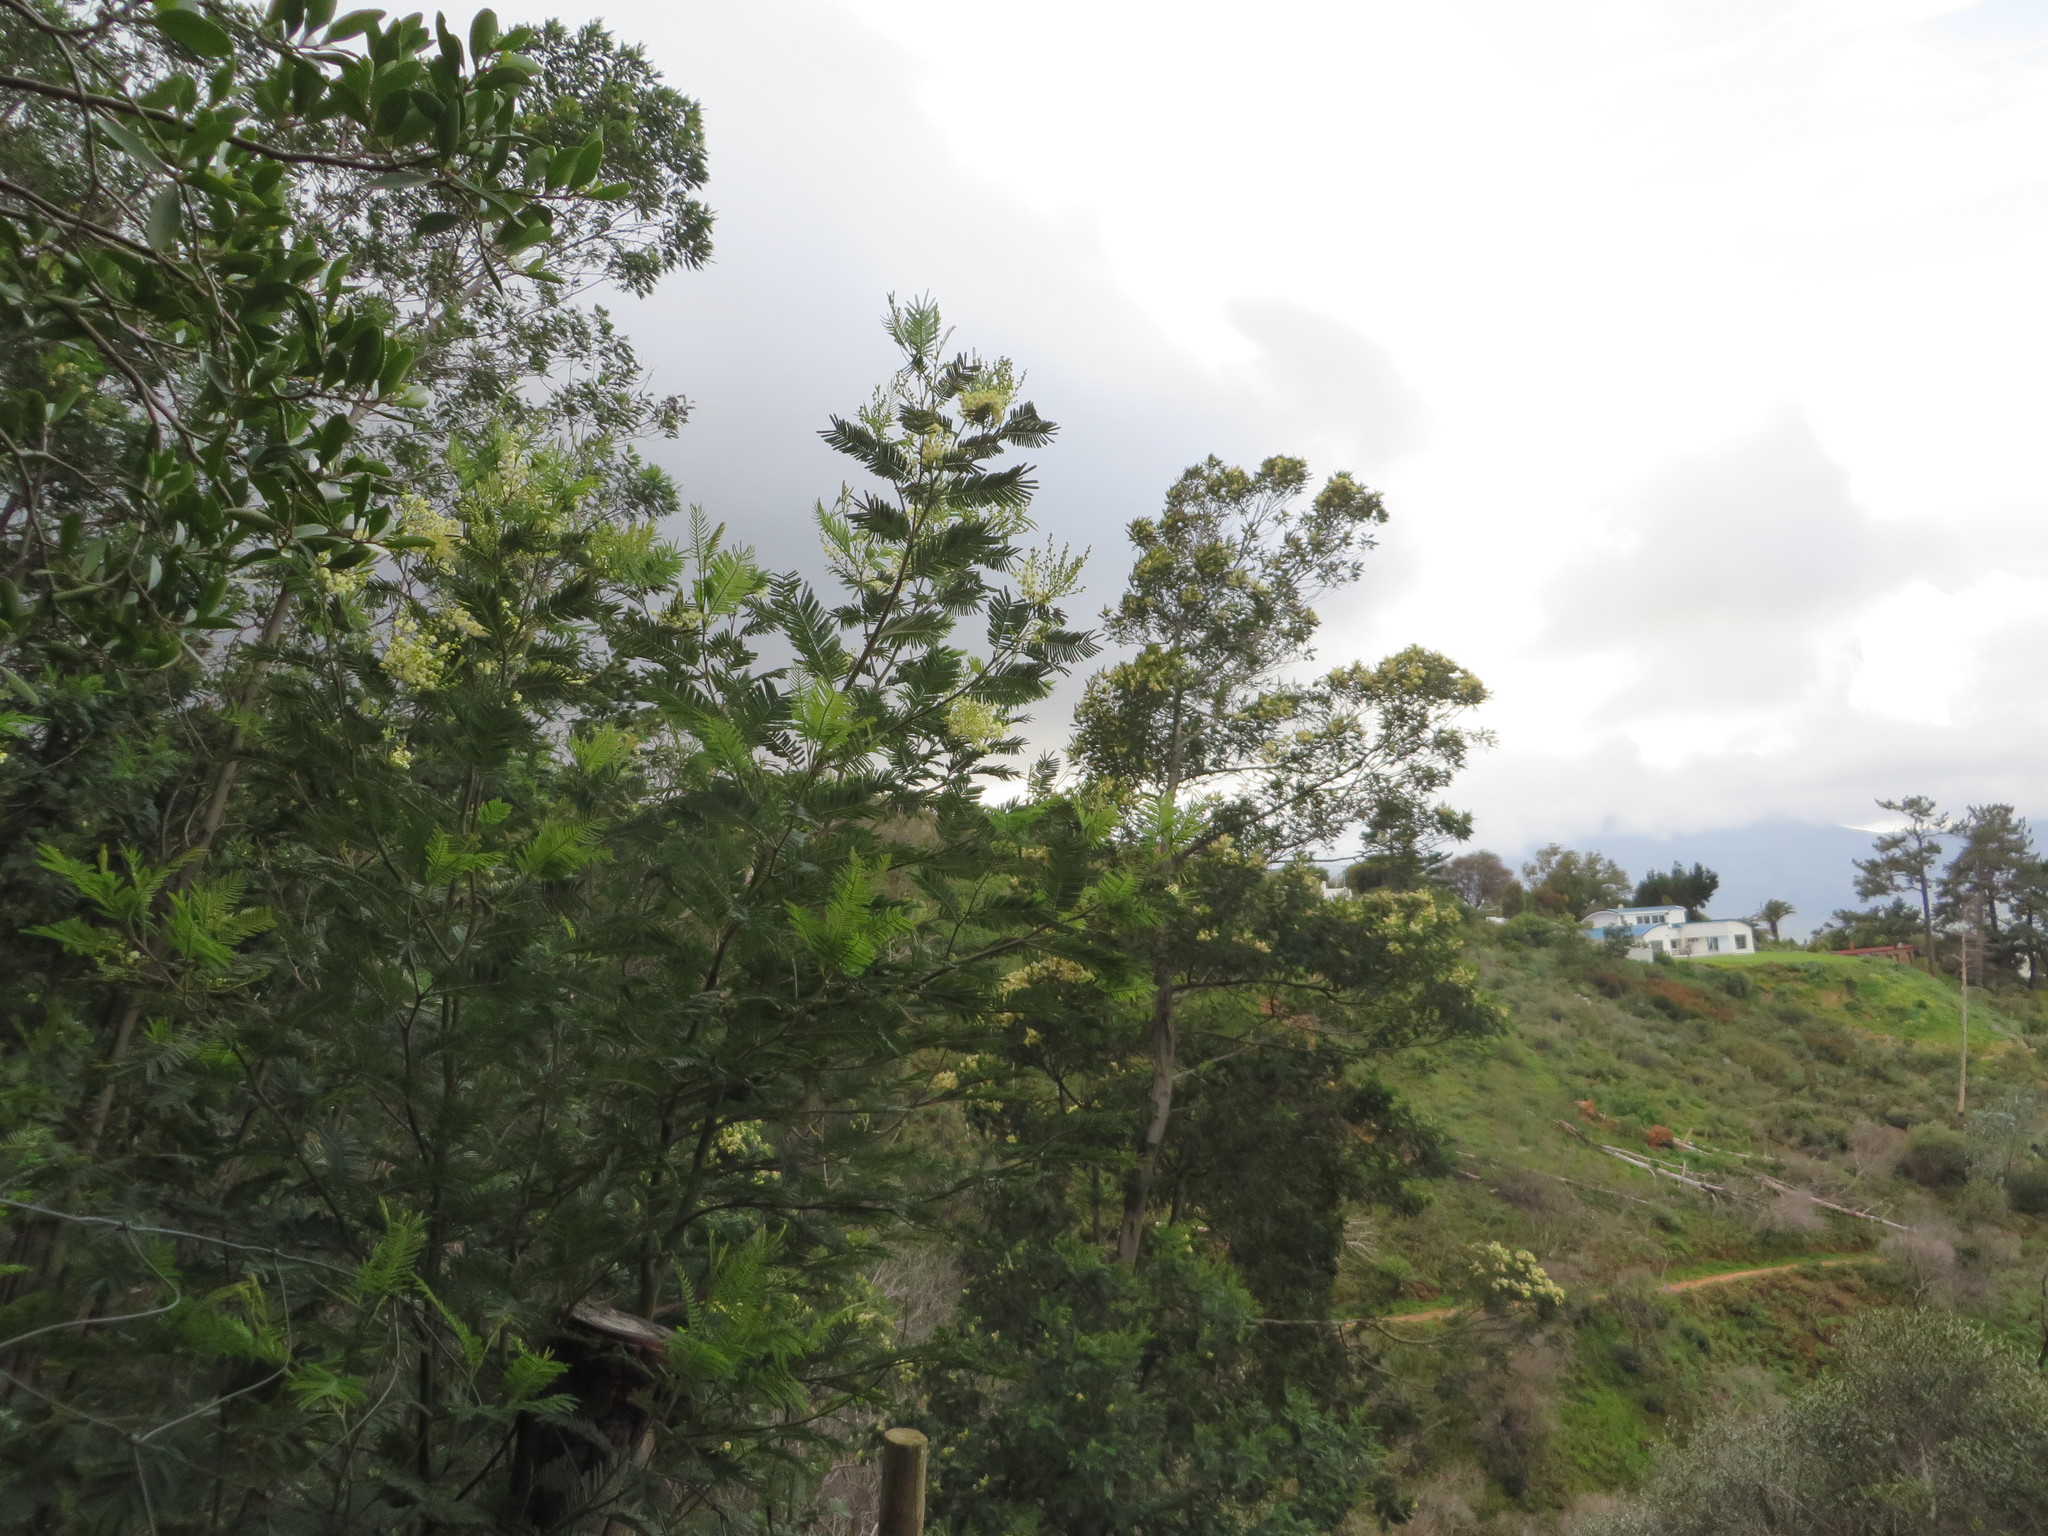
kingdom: Plantae
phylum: Tracheophyta
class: Magnoliopsida
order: Fabales
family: Fabaceae
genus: Acacia
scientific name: Acacia mearnsii
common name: Black wattle
